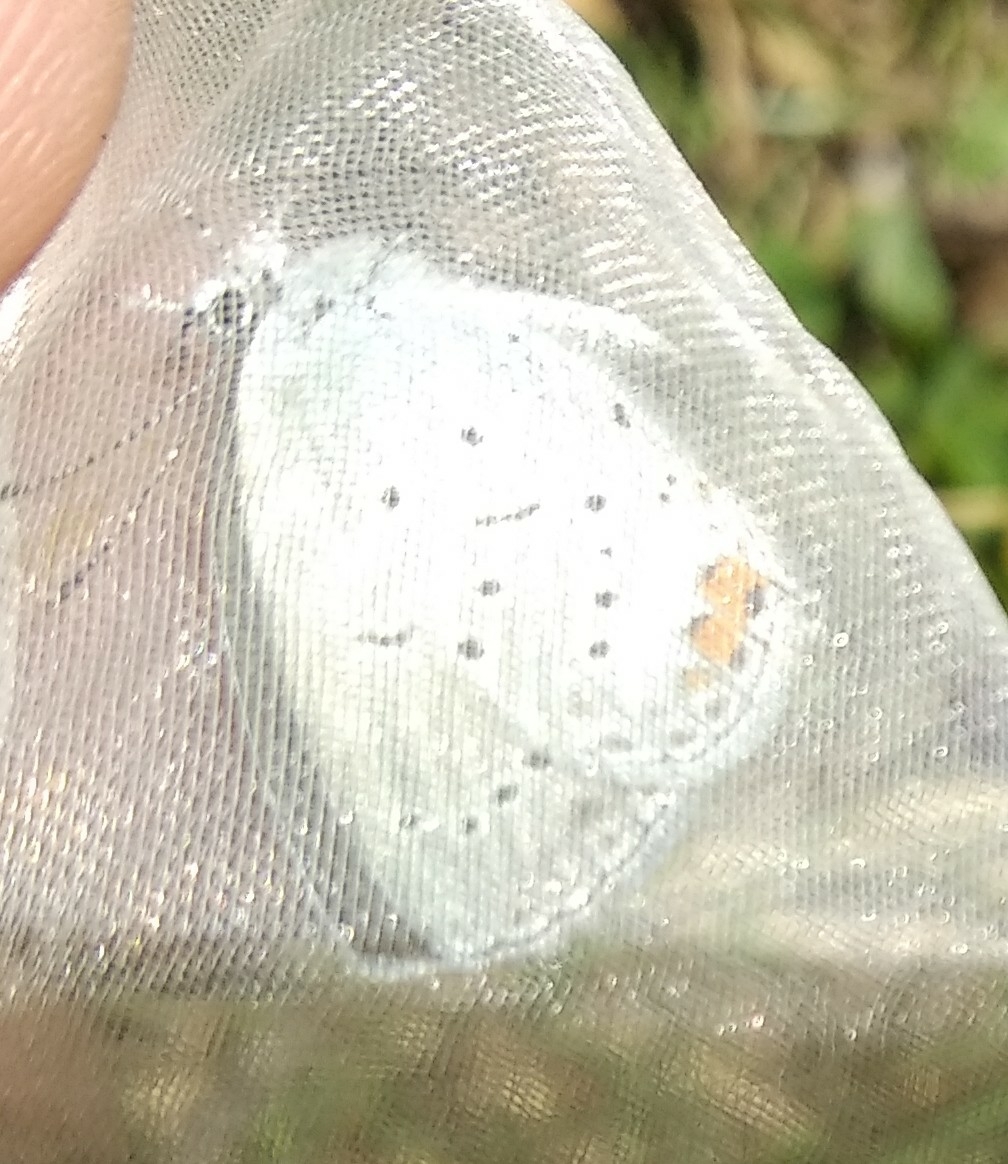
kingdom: Animalia
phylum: Arthropoda
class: Insecta
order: Lepidoptera
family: Lycaenidae
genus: Elkalyce
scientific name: Elkalyce argiades
